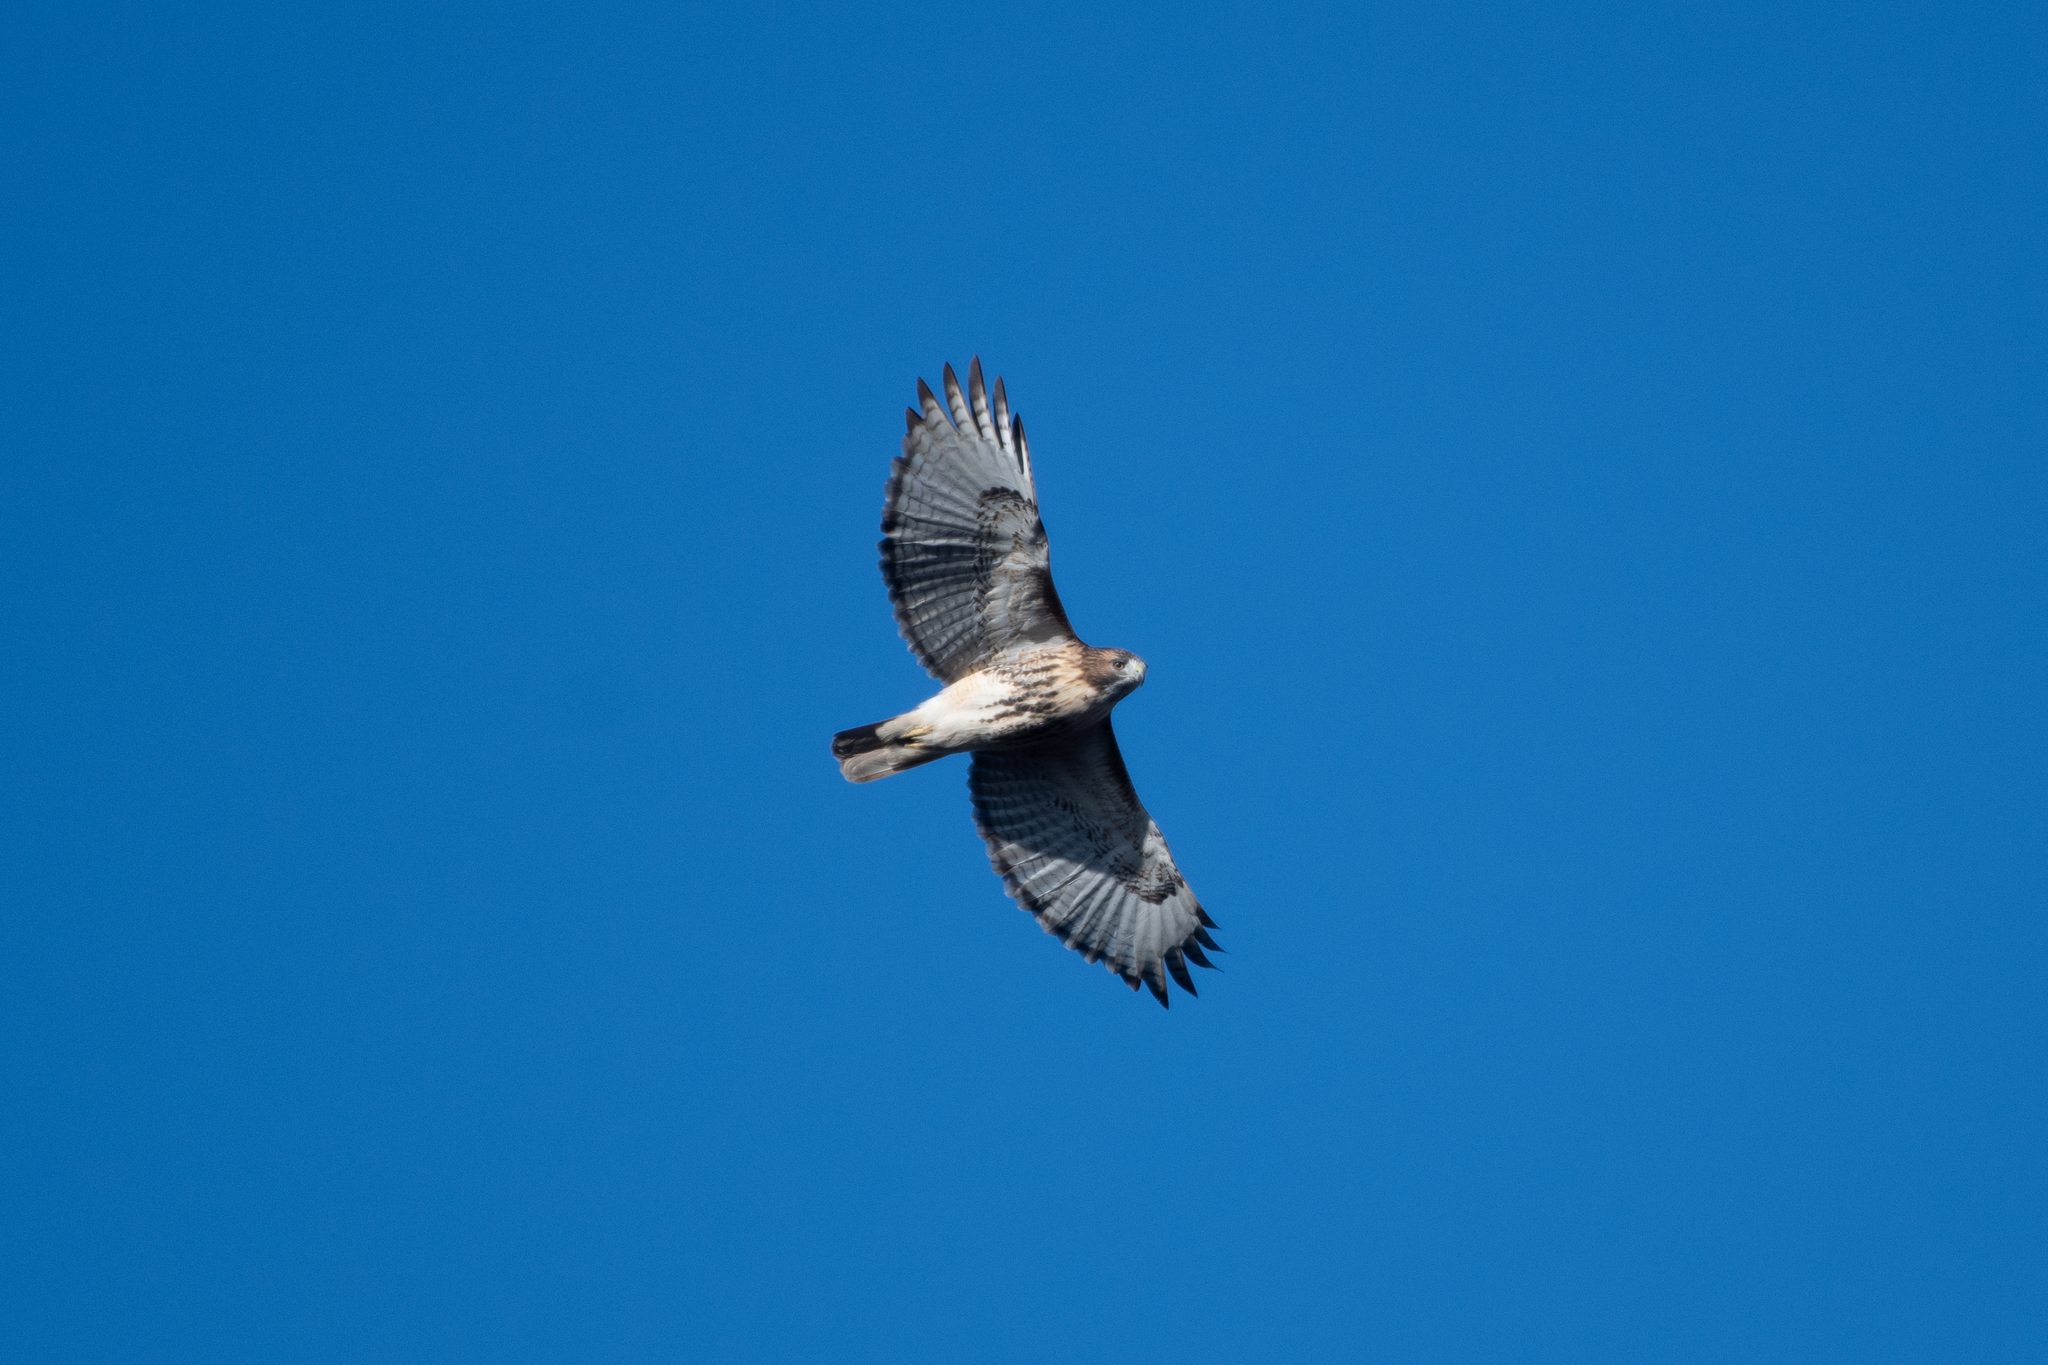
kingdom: Animalia
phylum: Chordata
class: Aves
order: Accipitriformes
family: Accipitridae
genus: Buteo
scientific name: Buteo jamaicensis
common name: Red-tailed hawk
